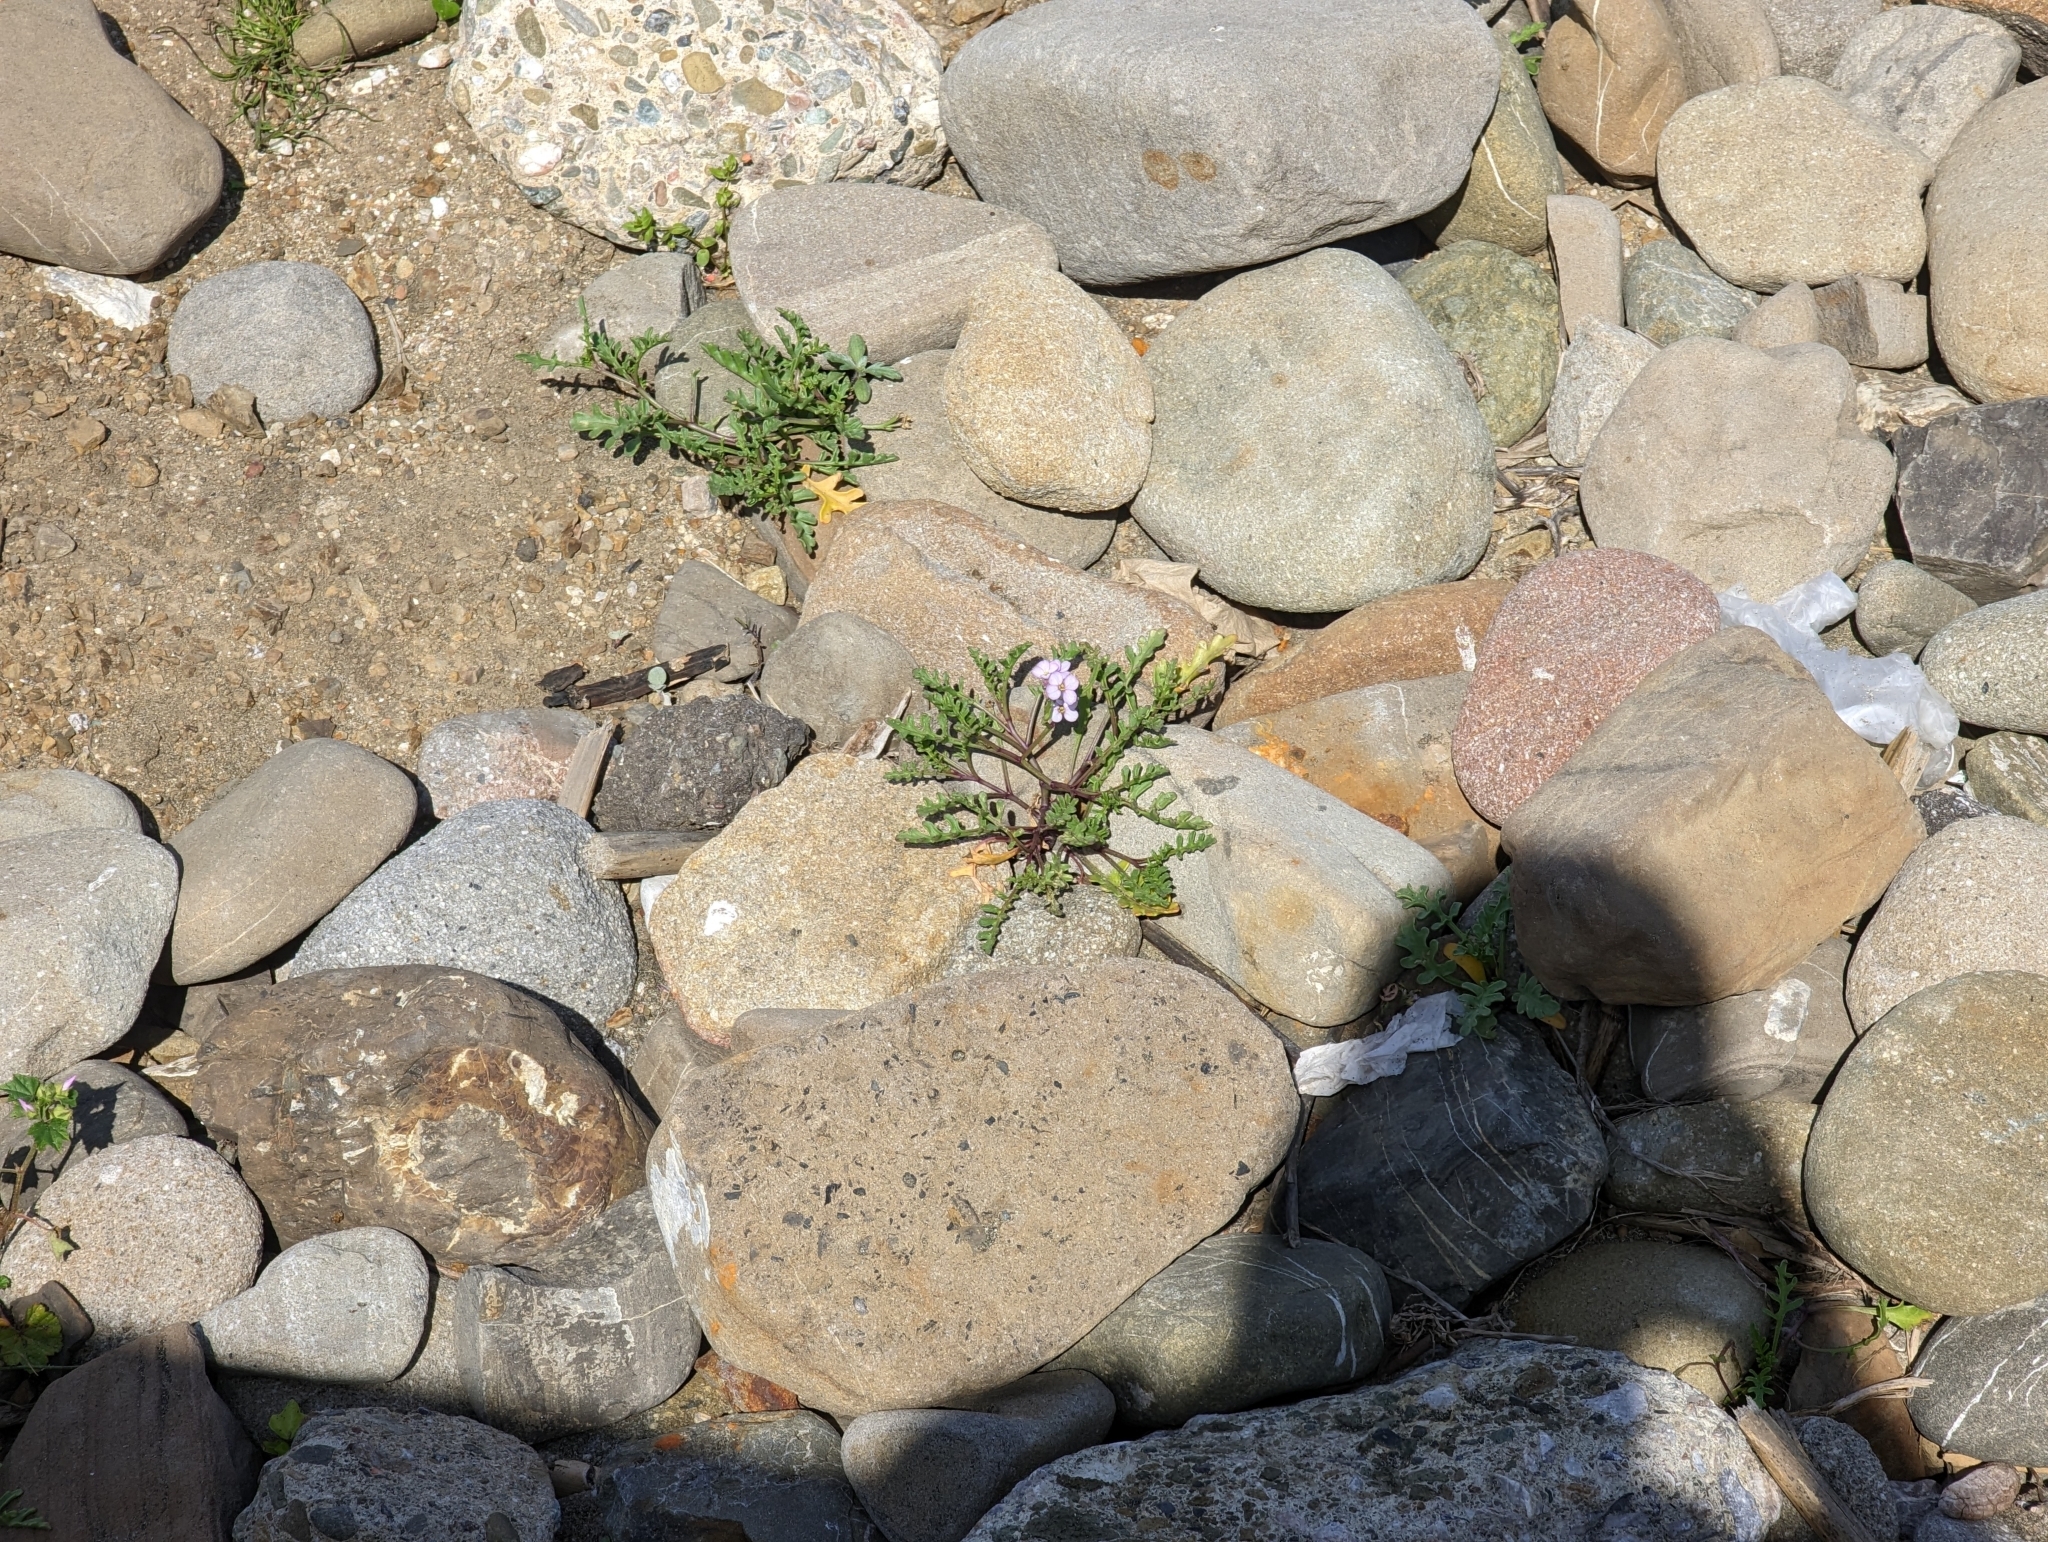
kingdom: Plantae
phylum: Tracheophyta
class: Magnoliopsida
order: Brassicales
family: Brassicaceae
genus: Cakile
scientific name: Cakile maritima
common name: Sea rocket
